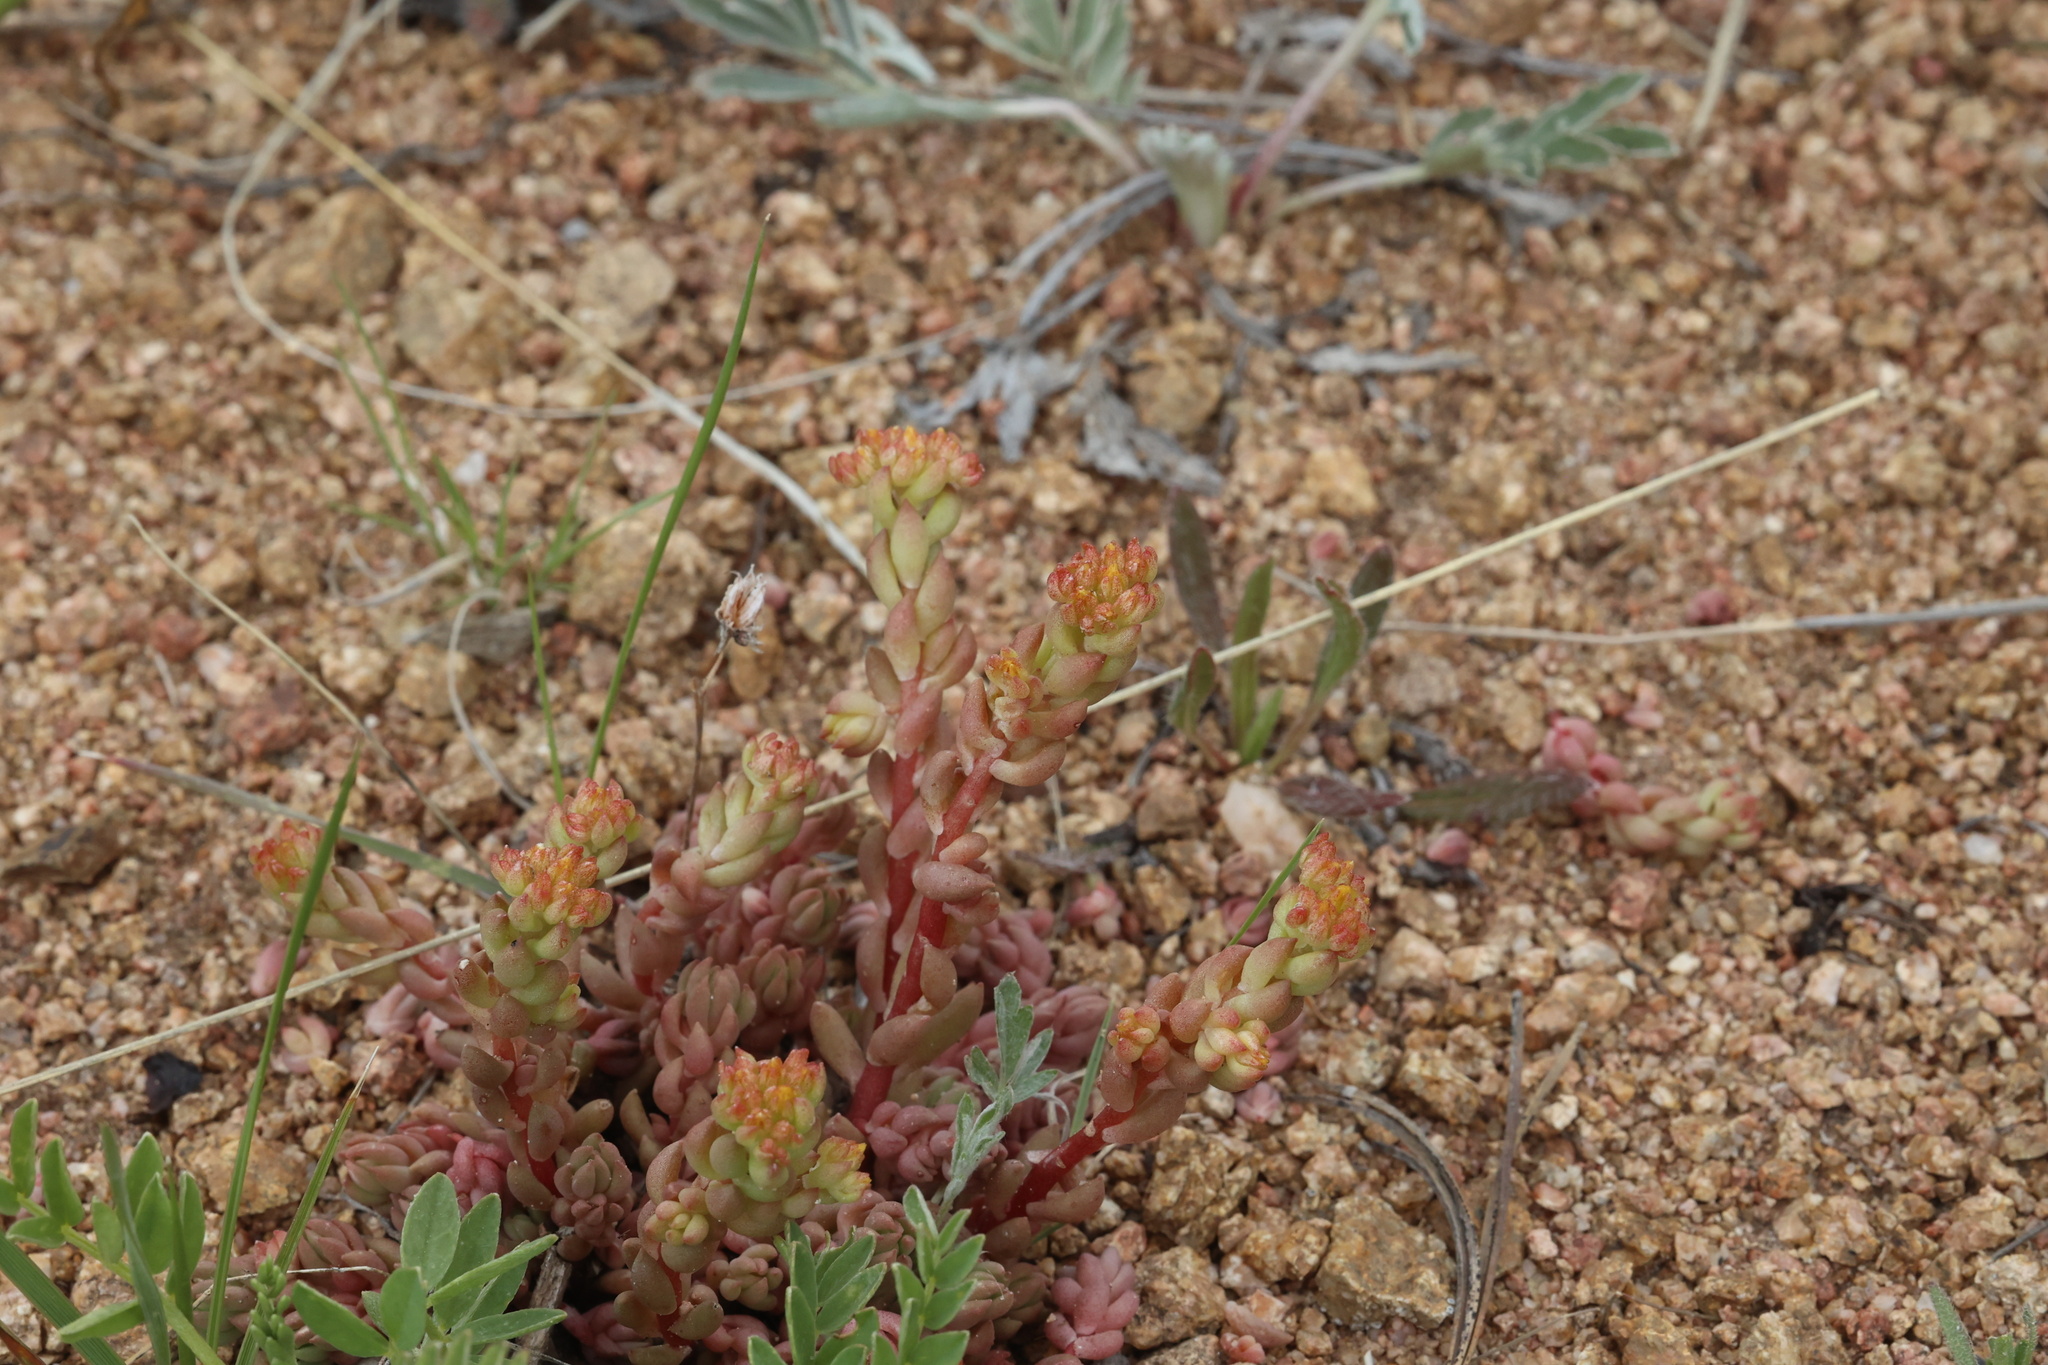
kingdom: Plantae
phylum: Tracheophyta
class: Magnoliopsida
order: Saxifragales
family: Crassulaceae
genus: Sedum
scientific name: Sedum lanceolatum
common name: Common stonecrop
